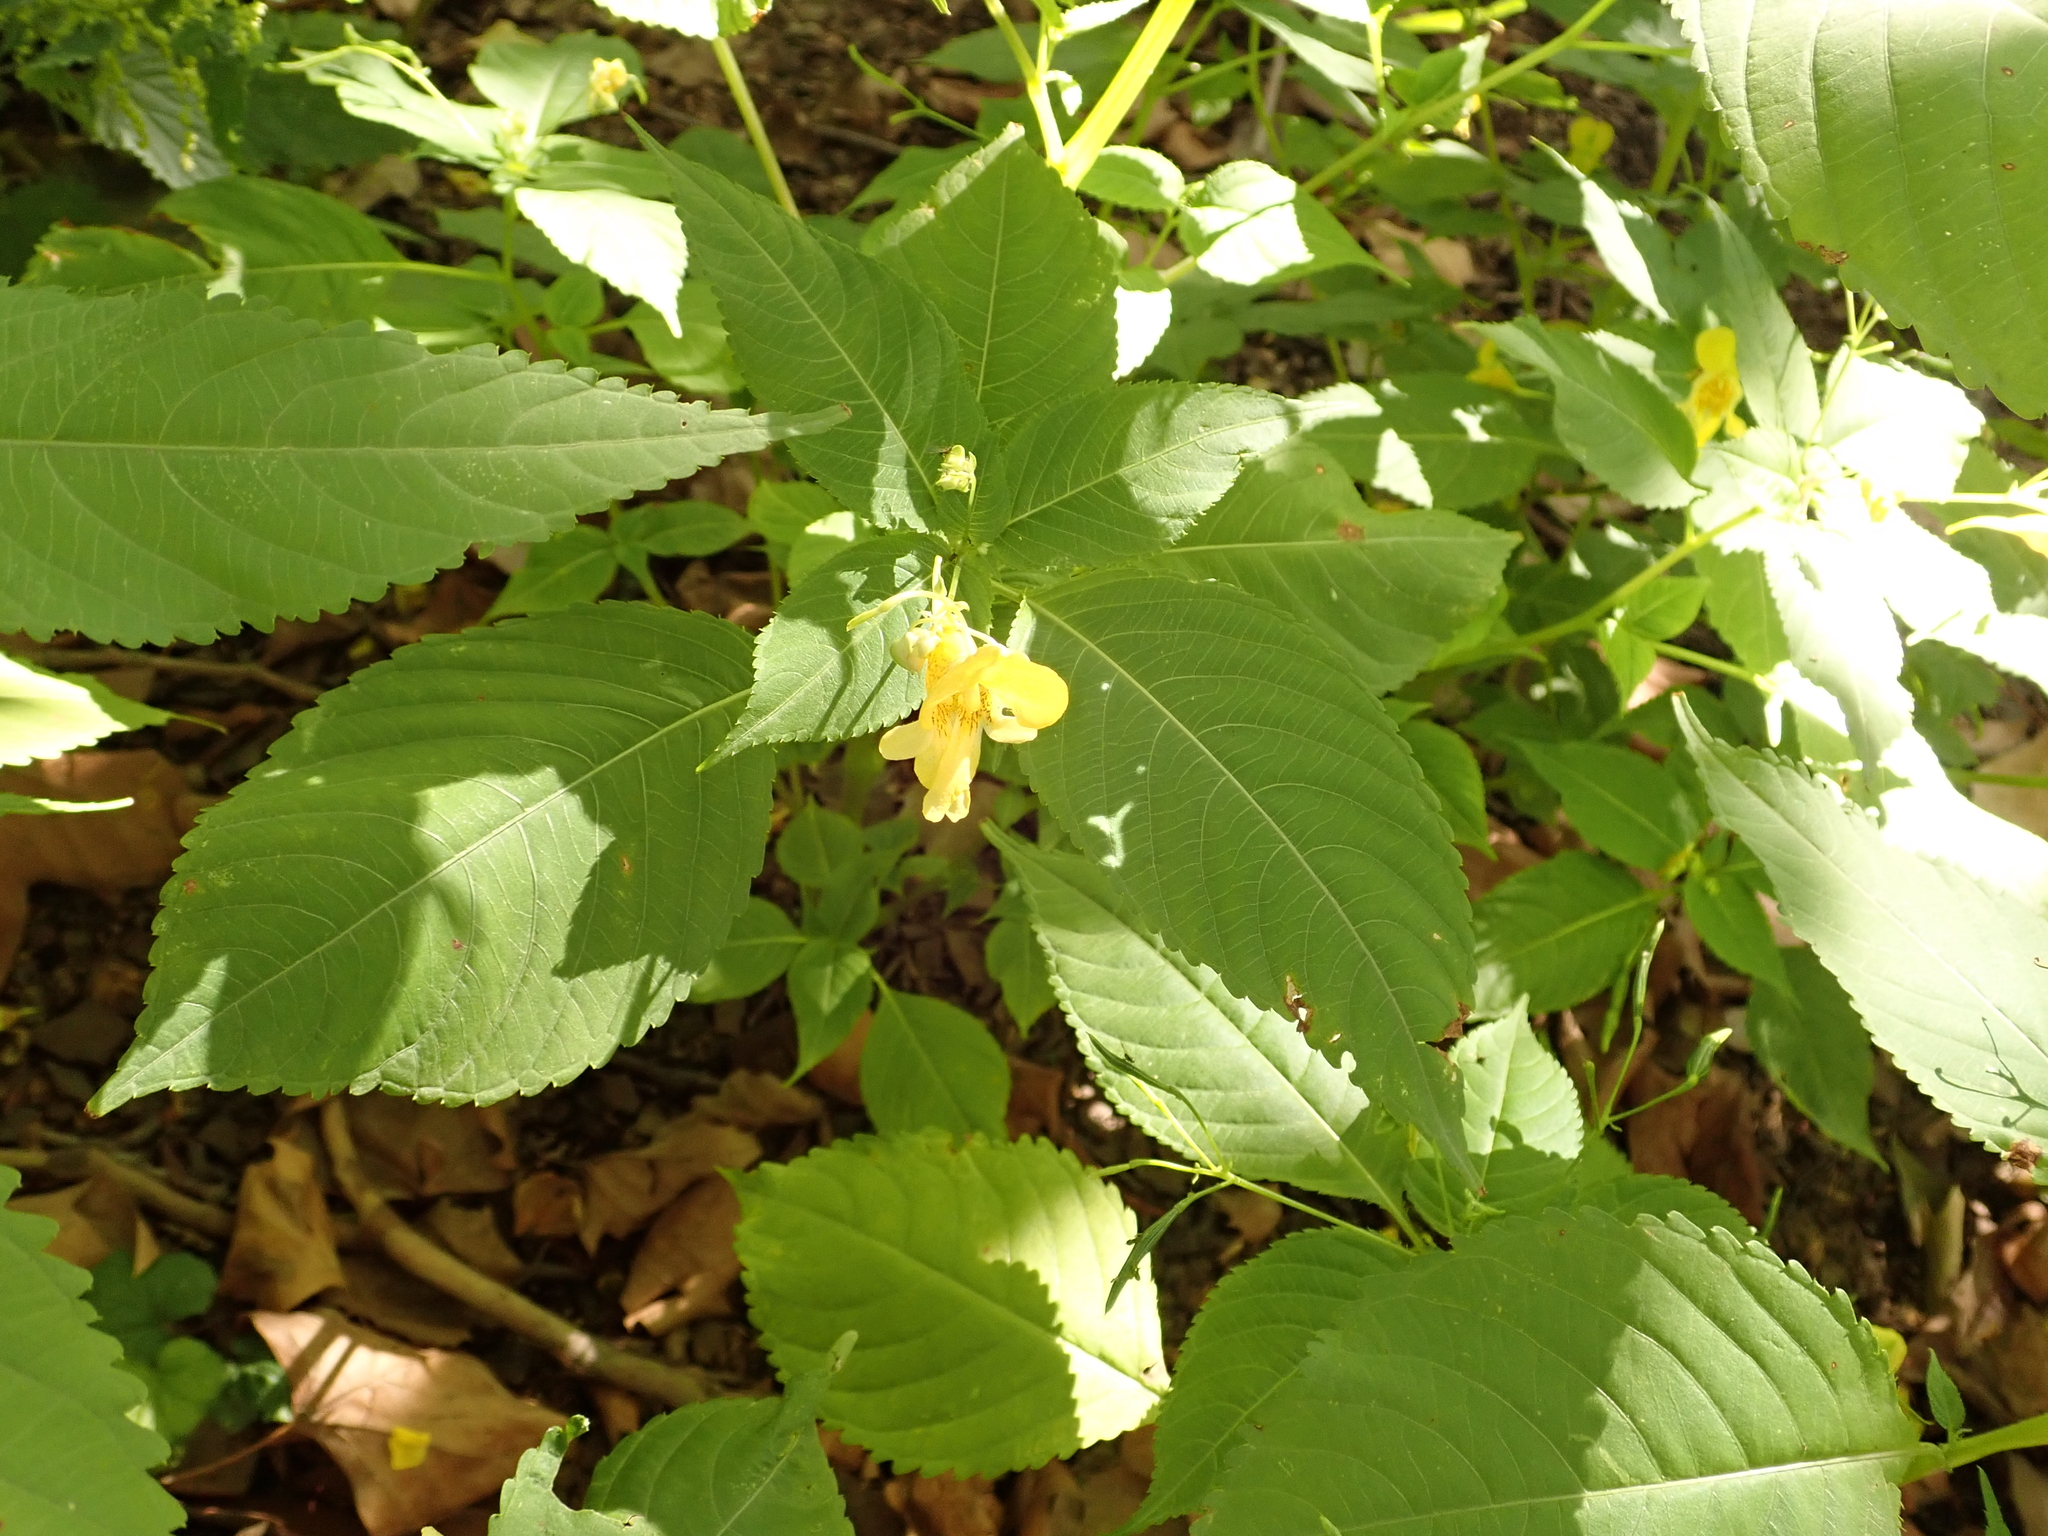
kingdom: Plantae
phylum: Tracheophyta
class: Magnoliopsida
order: Ericales
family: Balsaminaceae
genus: Impatiens
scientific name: Impatiens parviflora
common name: Small balsam
